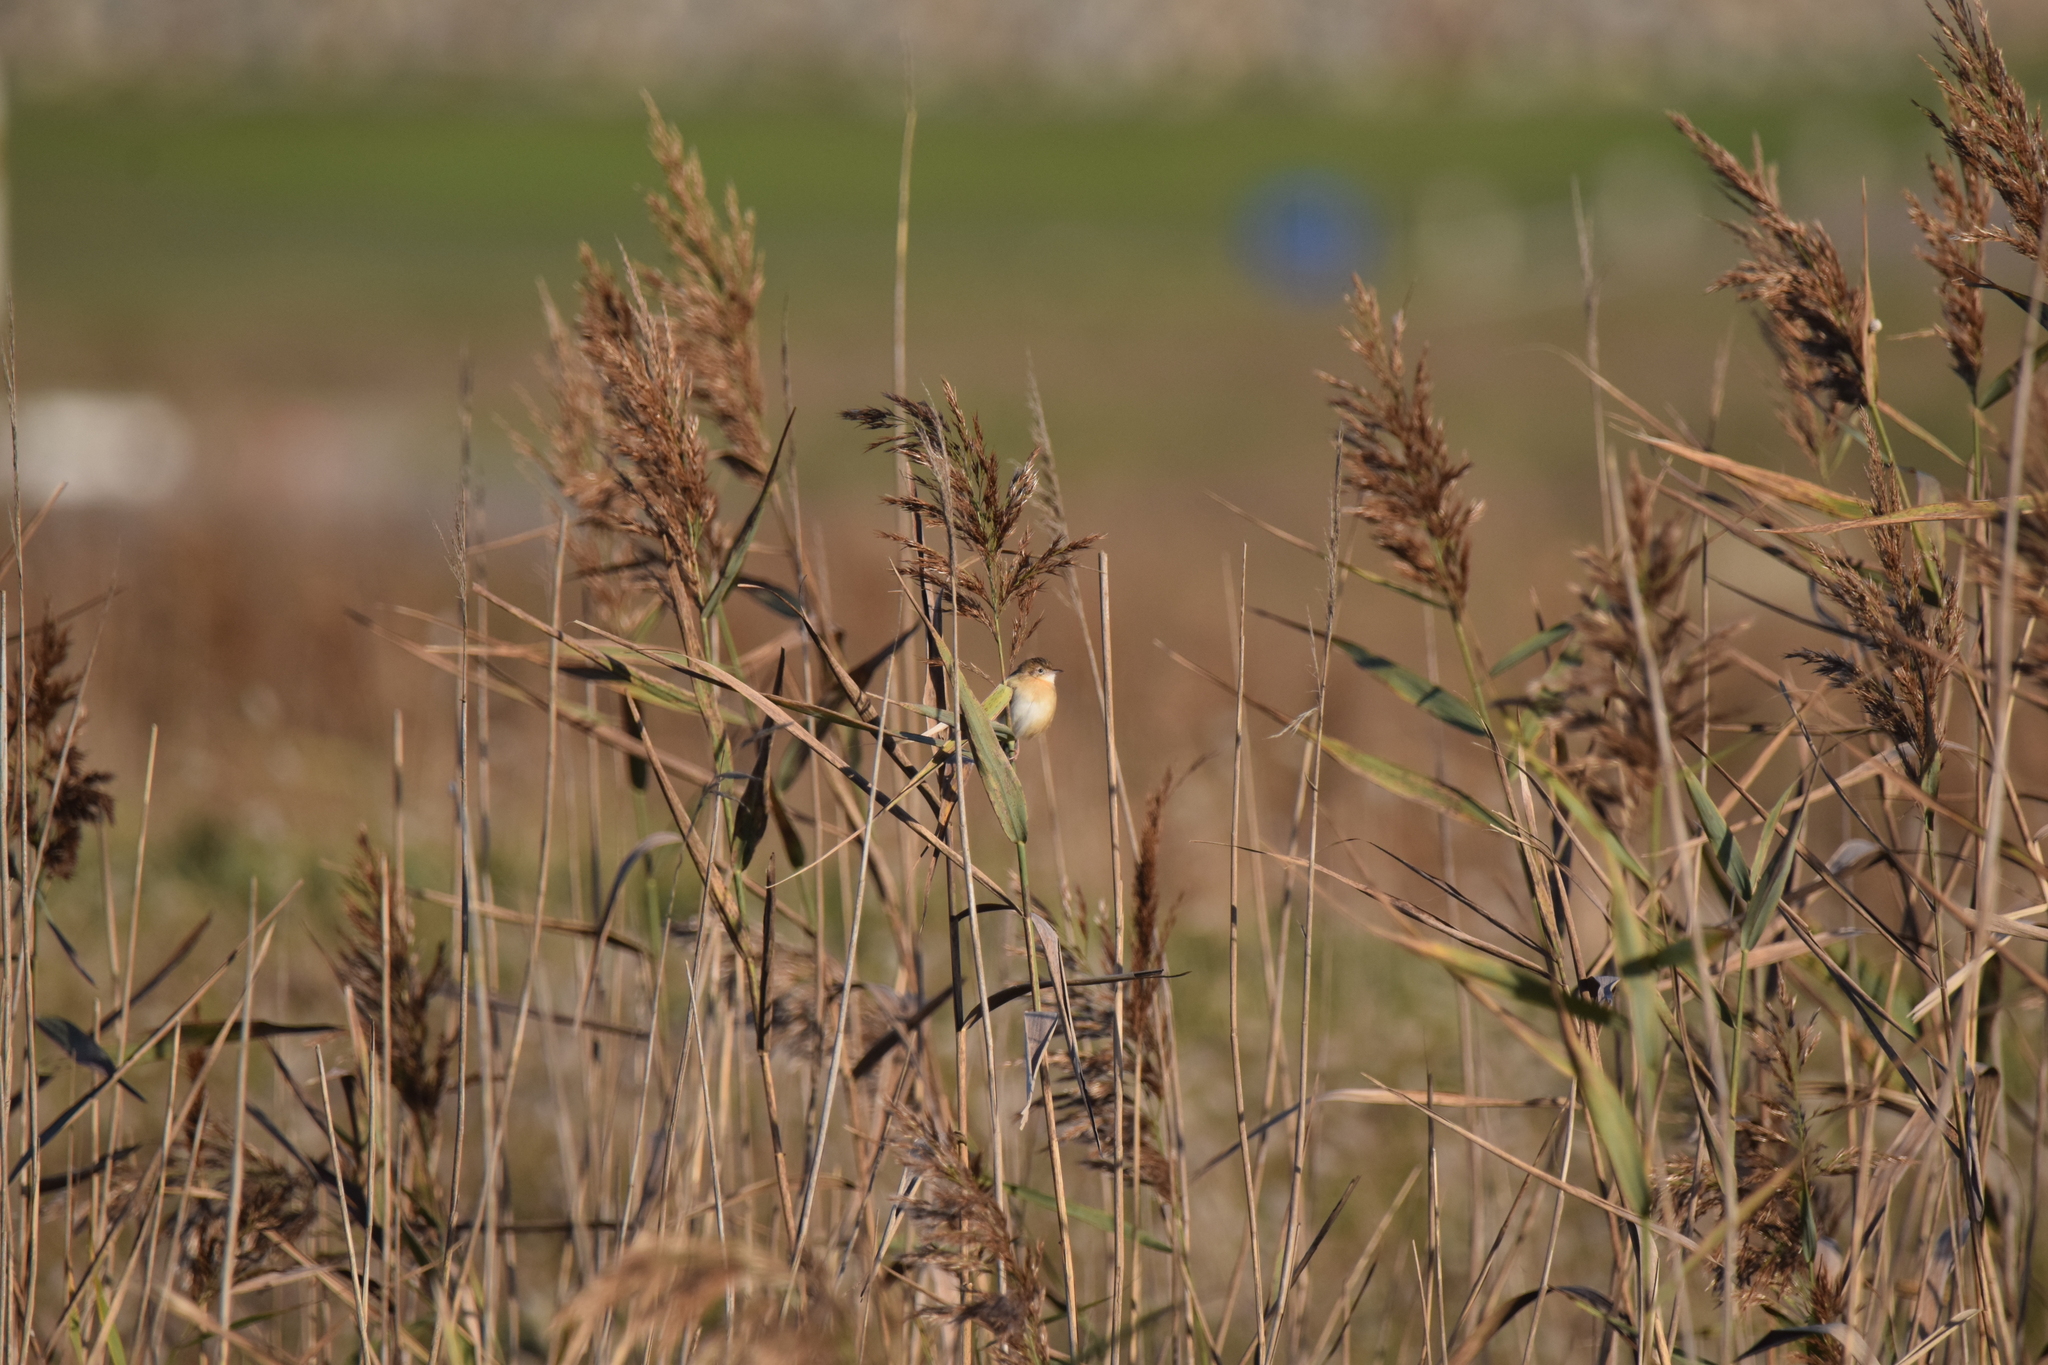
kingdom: Animalia
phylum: Chordata
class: Aves
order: Passeriformes
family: Cisticolidae
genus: Cisticola
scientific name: Cisticola juncidis
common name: Zitting cisticola
